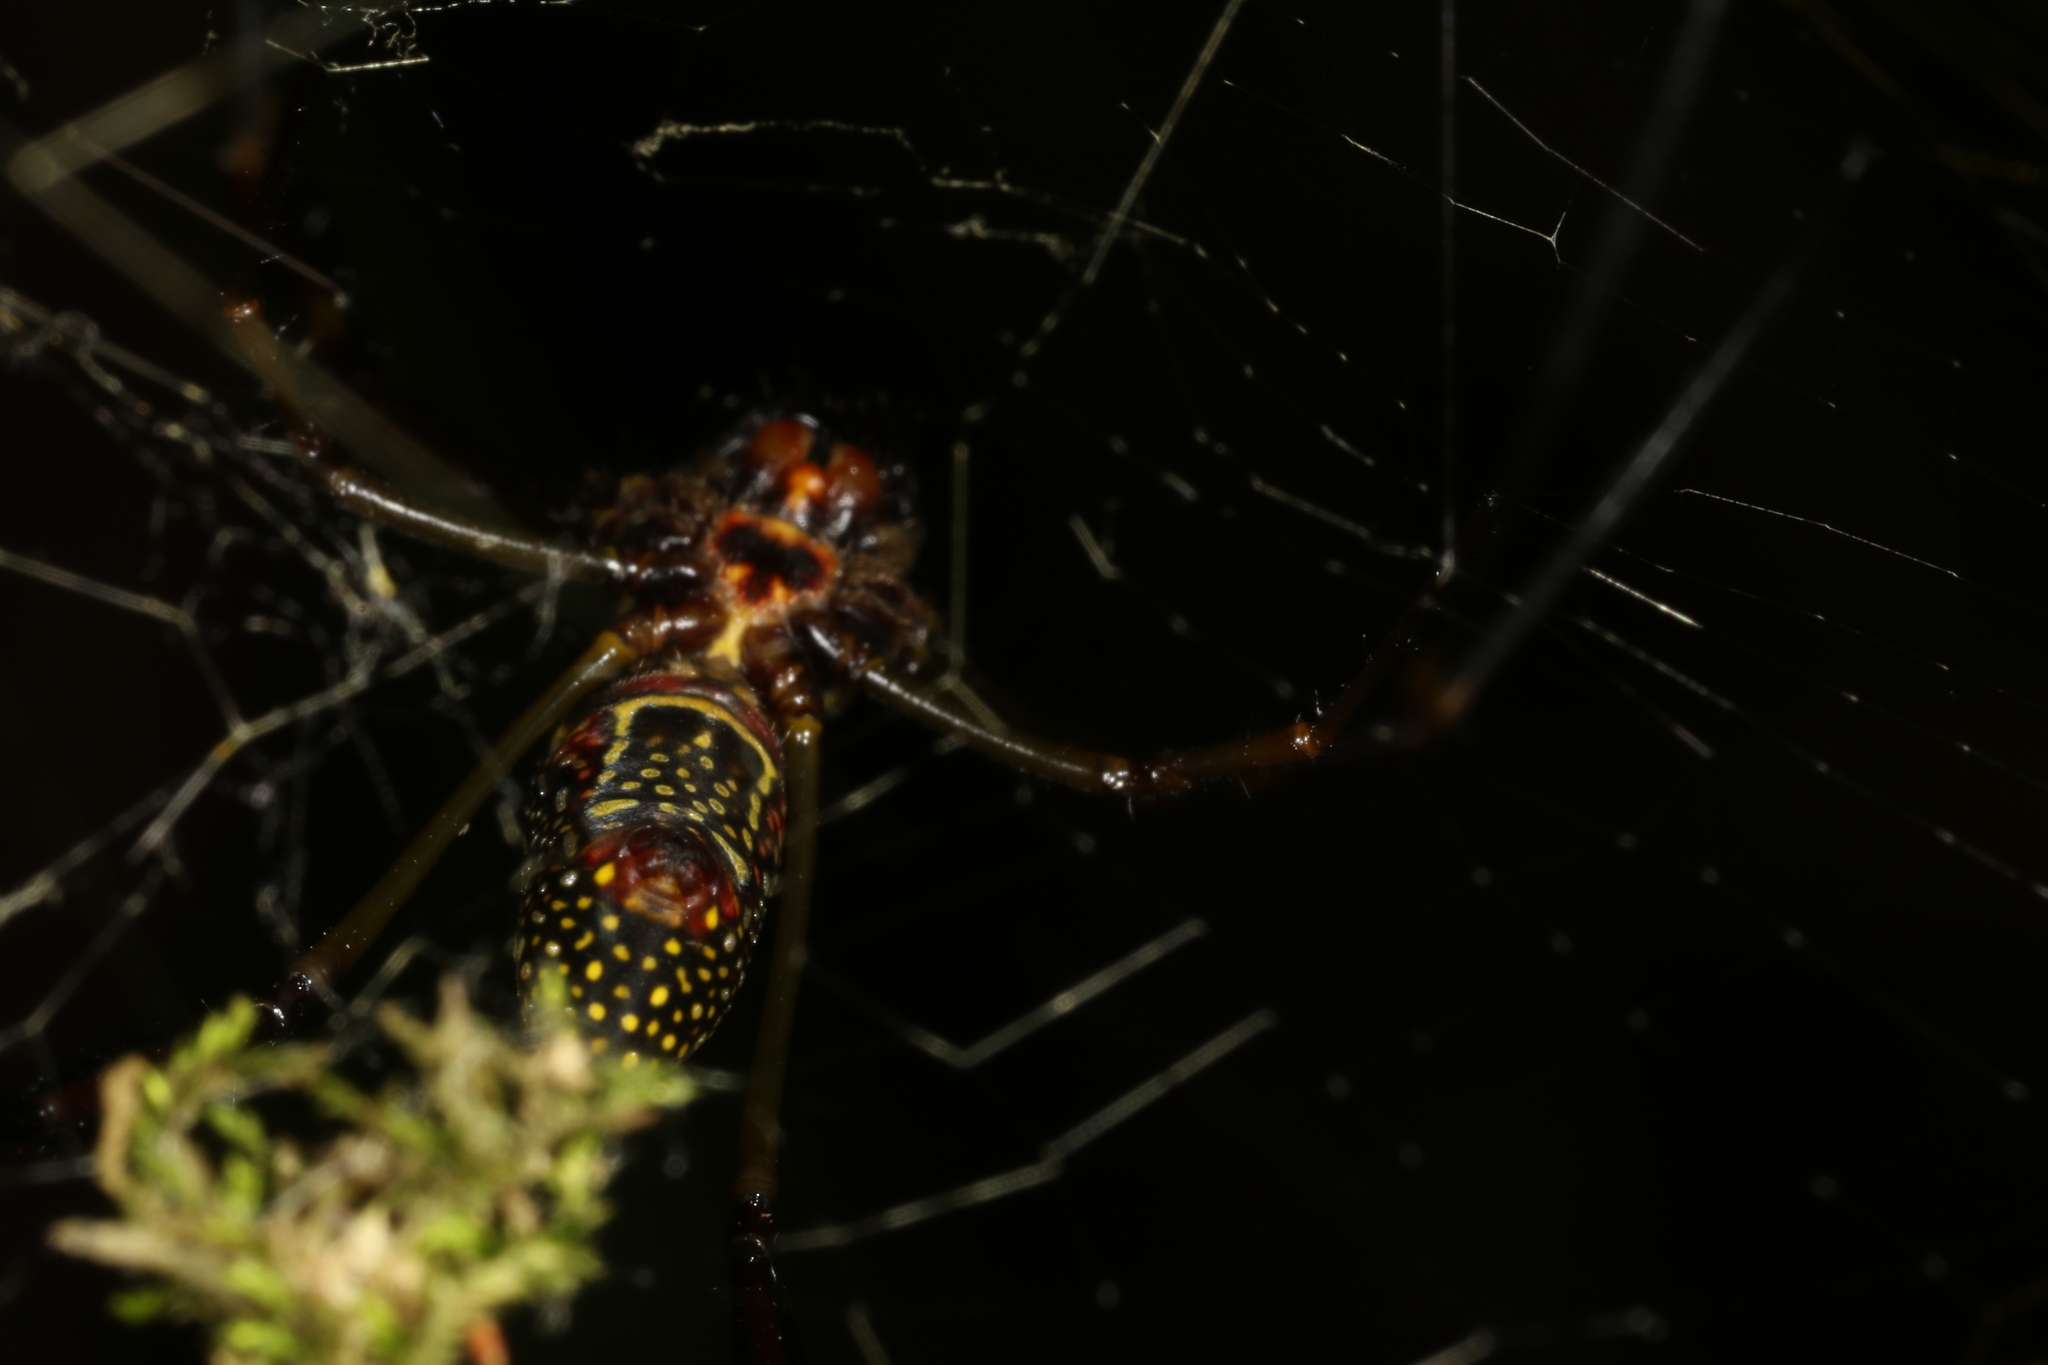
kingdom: Animalia
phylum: Arthropoda
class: Arachnida
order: Araneae
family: Araneidae
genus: Trichonephila
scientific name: Trichonephila clavipes
